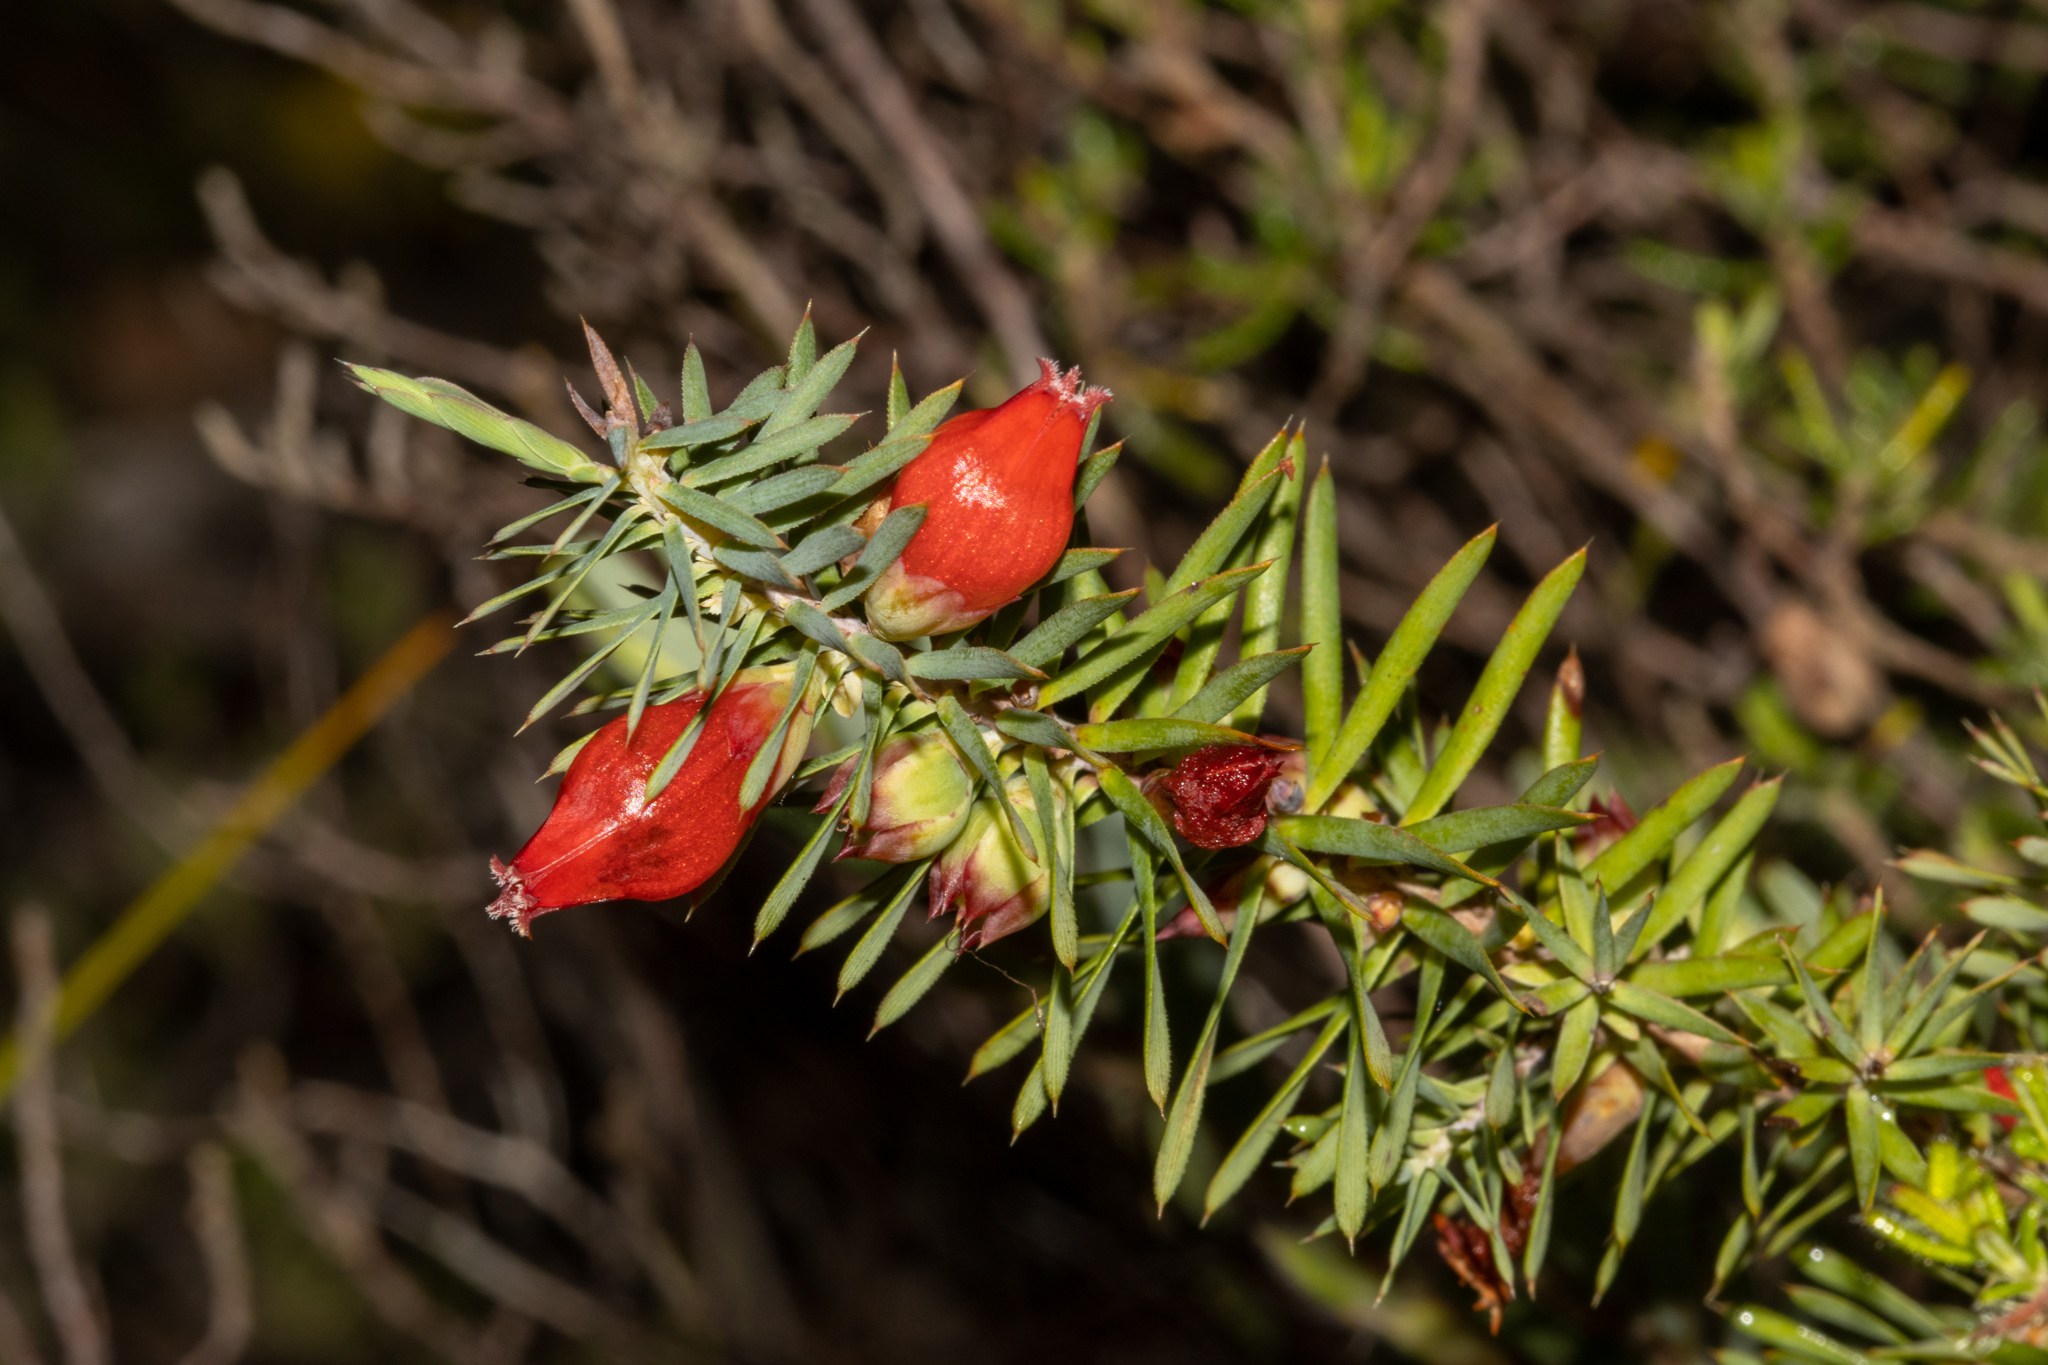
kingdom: Plantae
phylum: Tracheophyta
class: Magnoliopsida
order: Ericales
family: Ericaceae
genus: Styphelia
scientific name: Styphelia tortifolia
